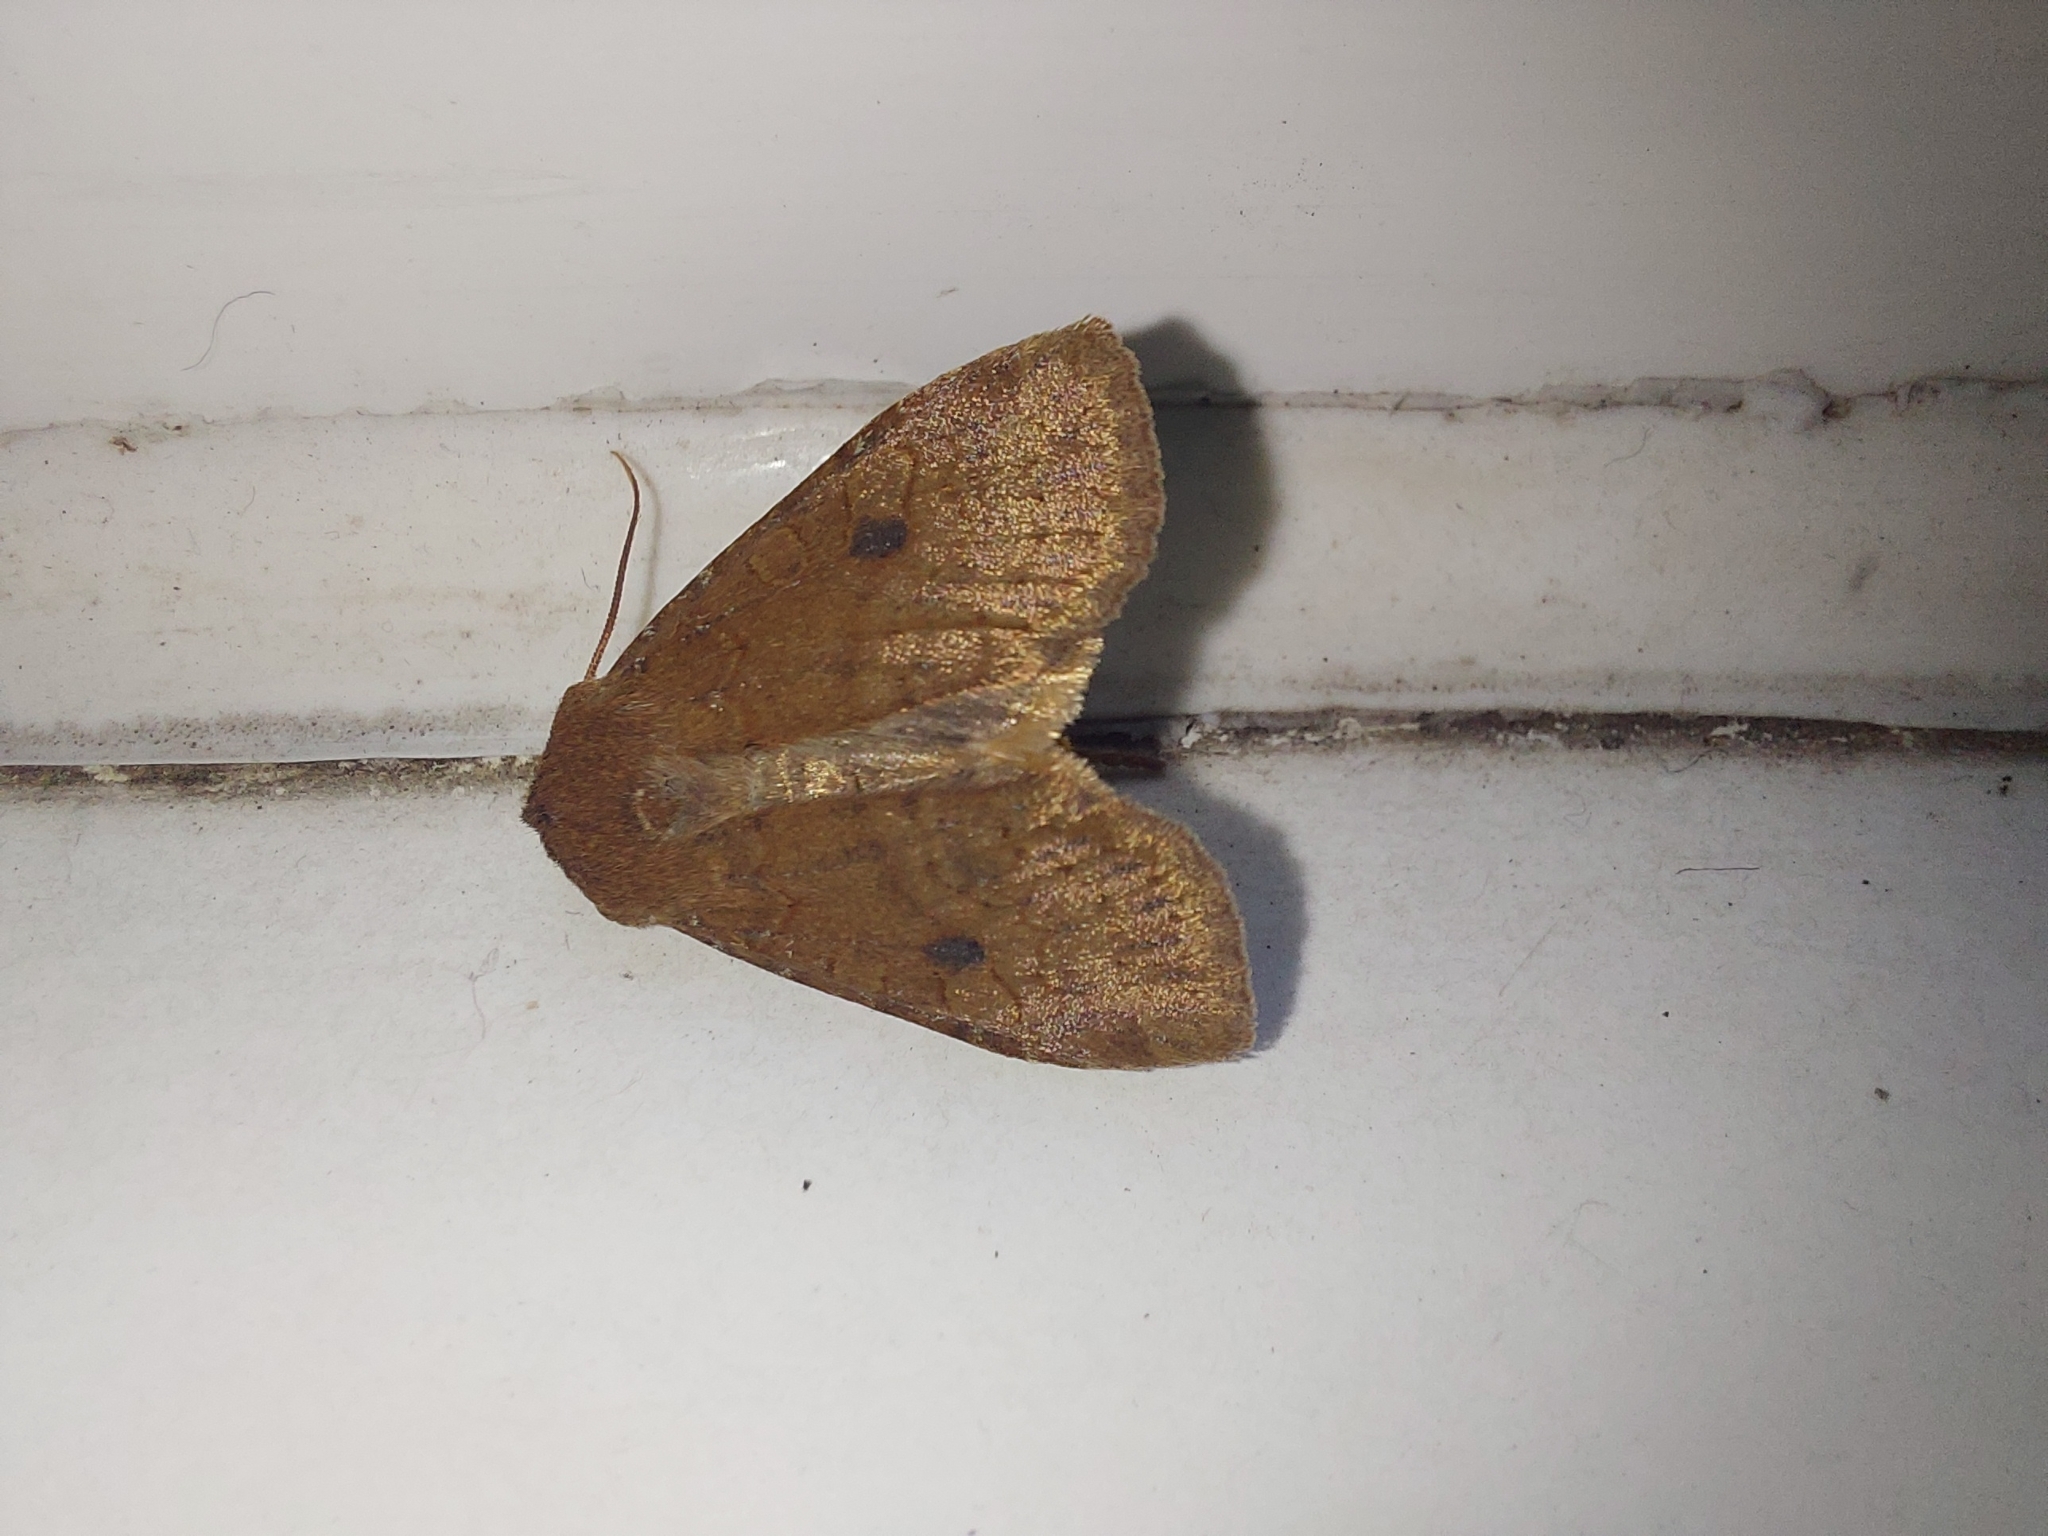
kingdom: Animalia
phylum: Arthropoda
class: Insecta
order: Lepidoptera
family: Noctuidae
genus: Conistra
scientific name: Conistra vaccinii
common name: Chestnut
